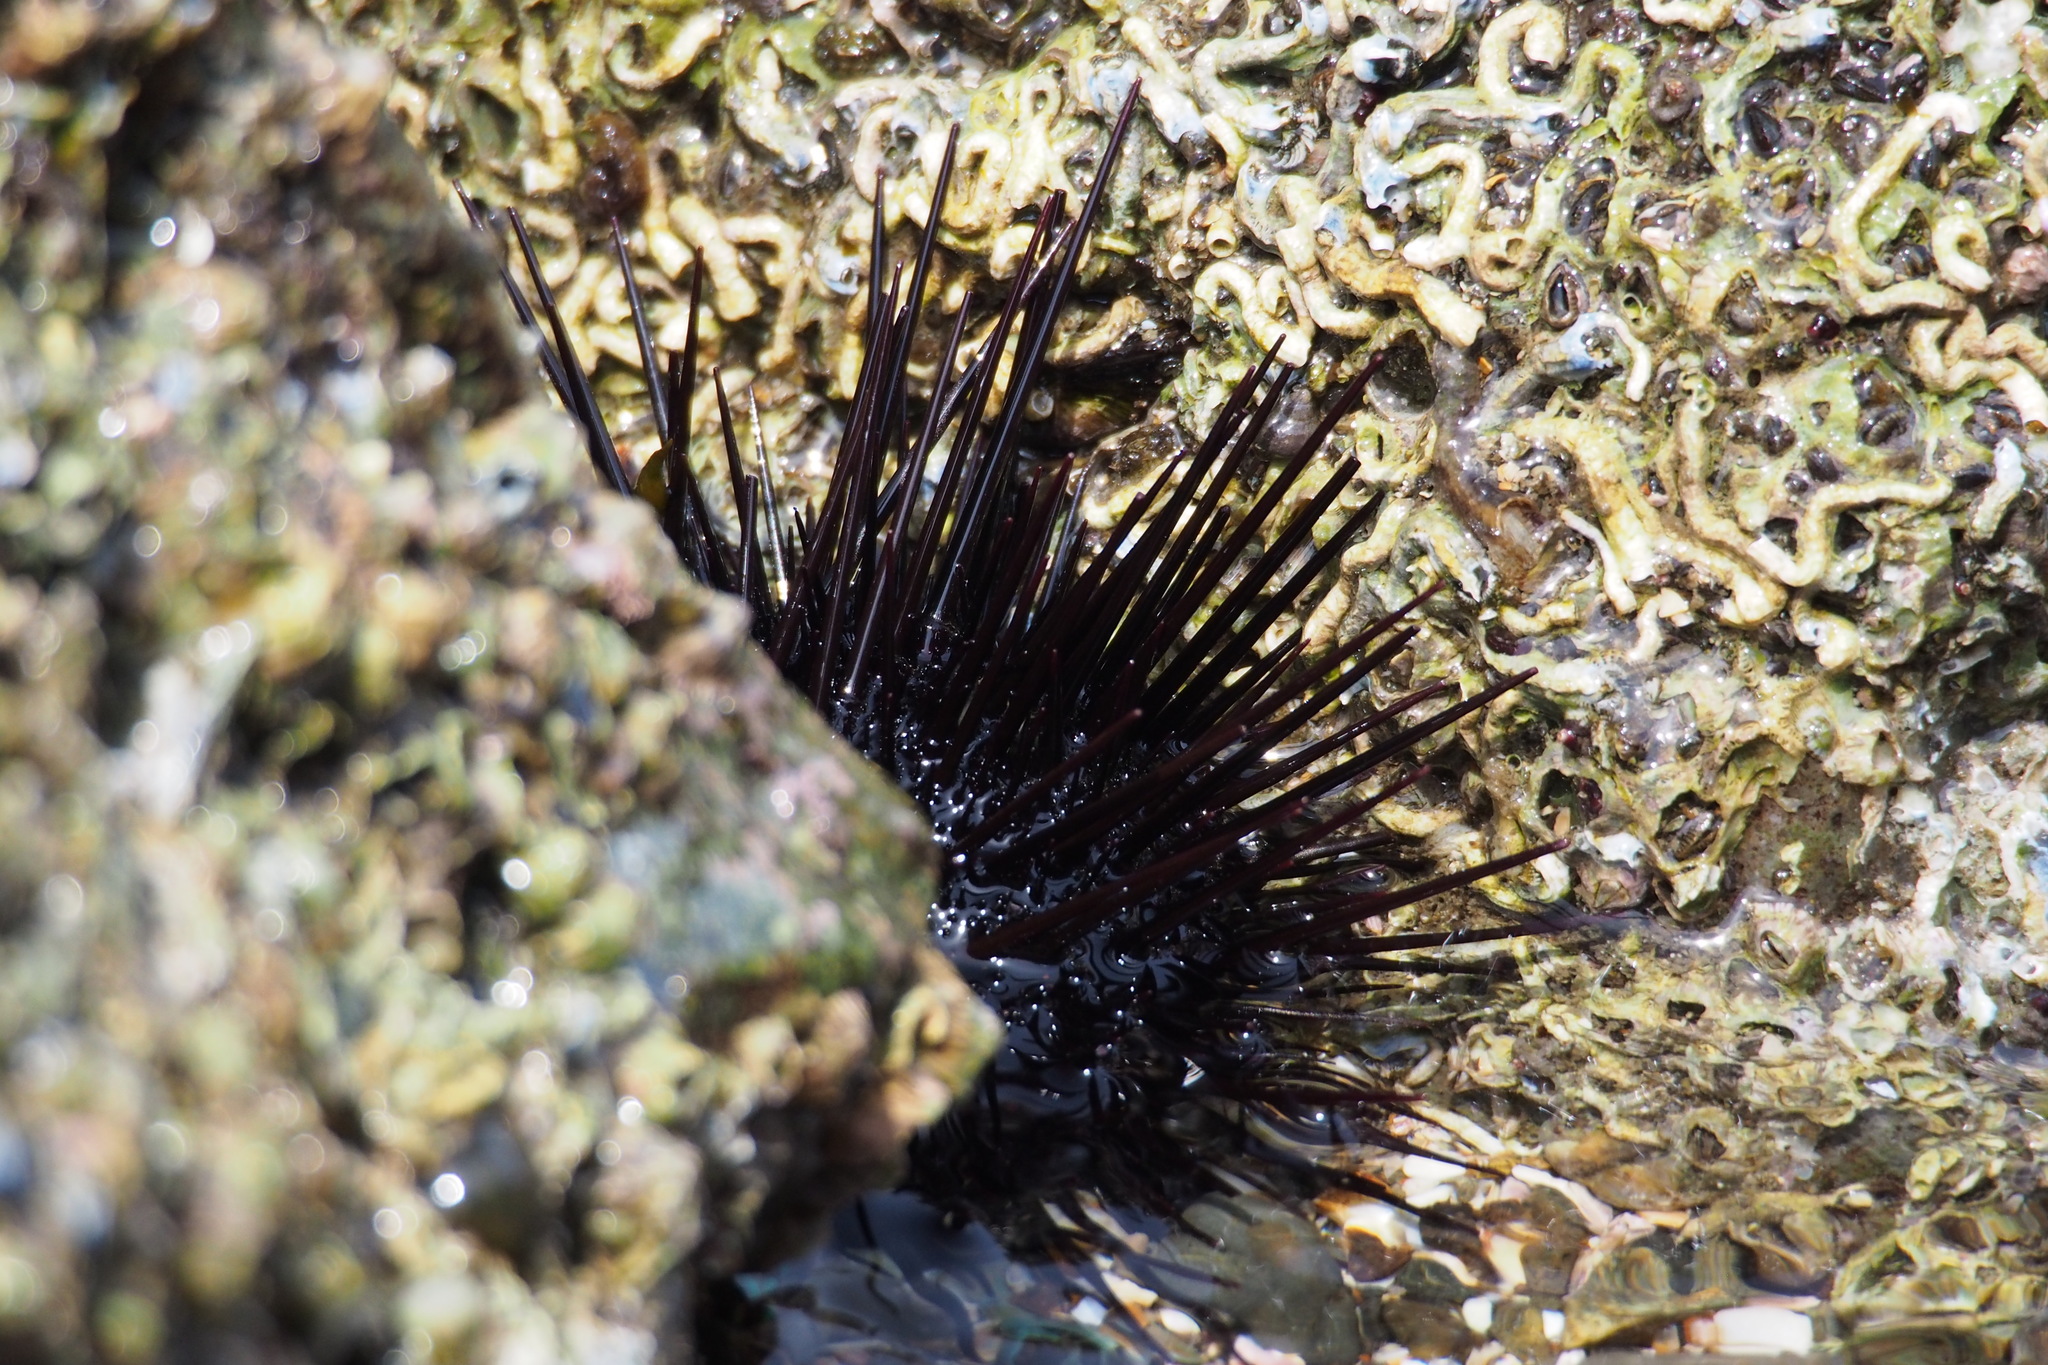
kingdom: Animalia
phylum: Echinodermata
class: Echinoidea
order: Camarodonta
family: Echinometridae
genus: Heliocidaris
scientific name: Heliocidaris crassispina
